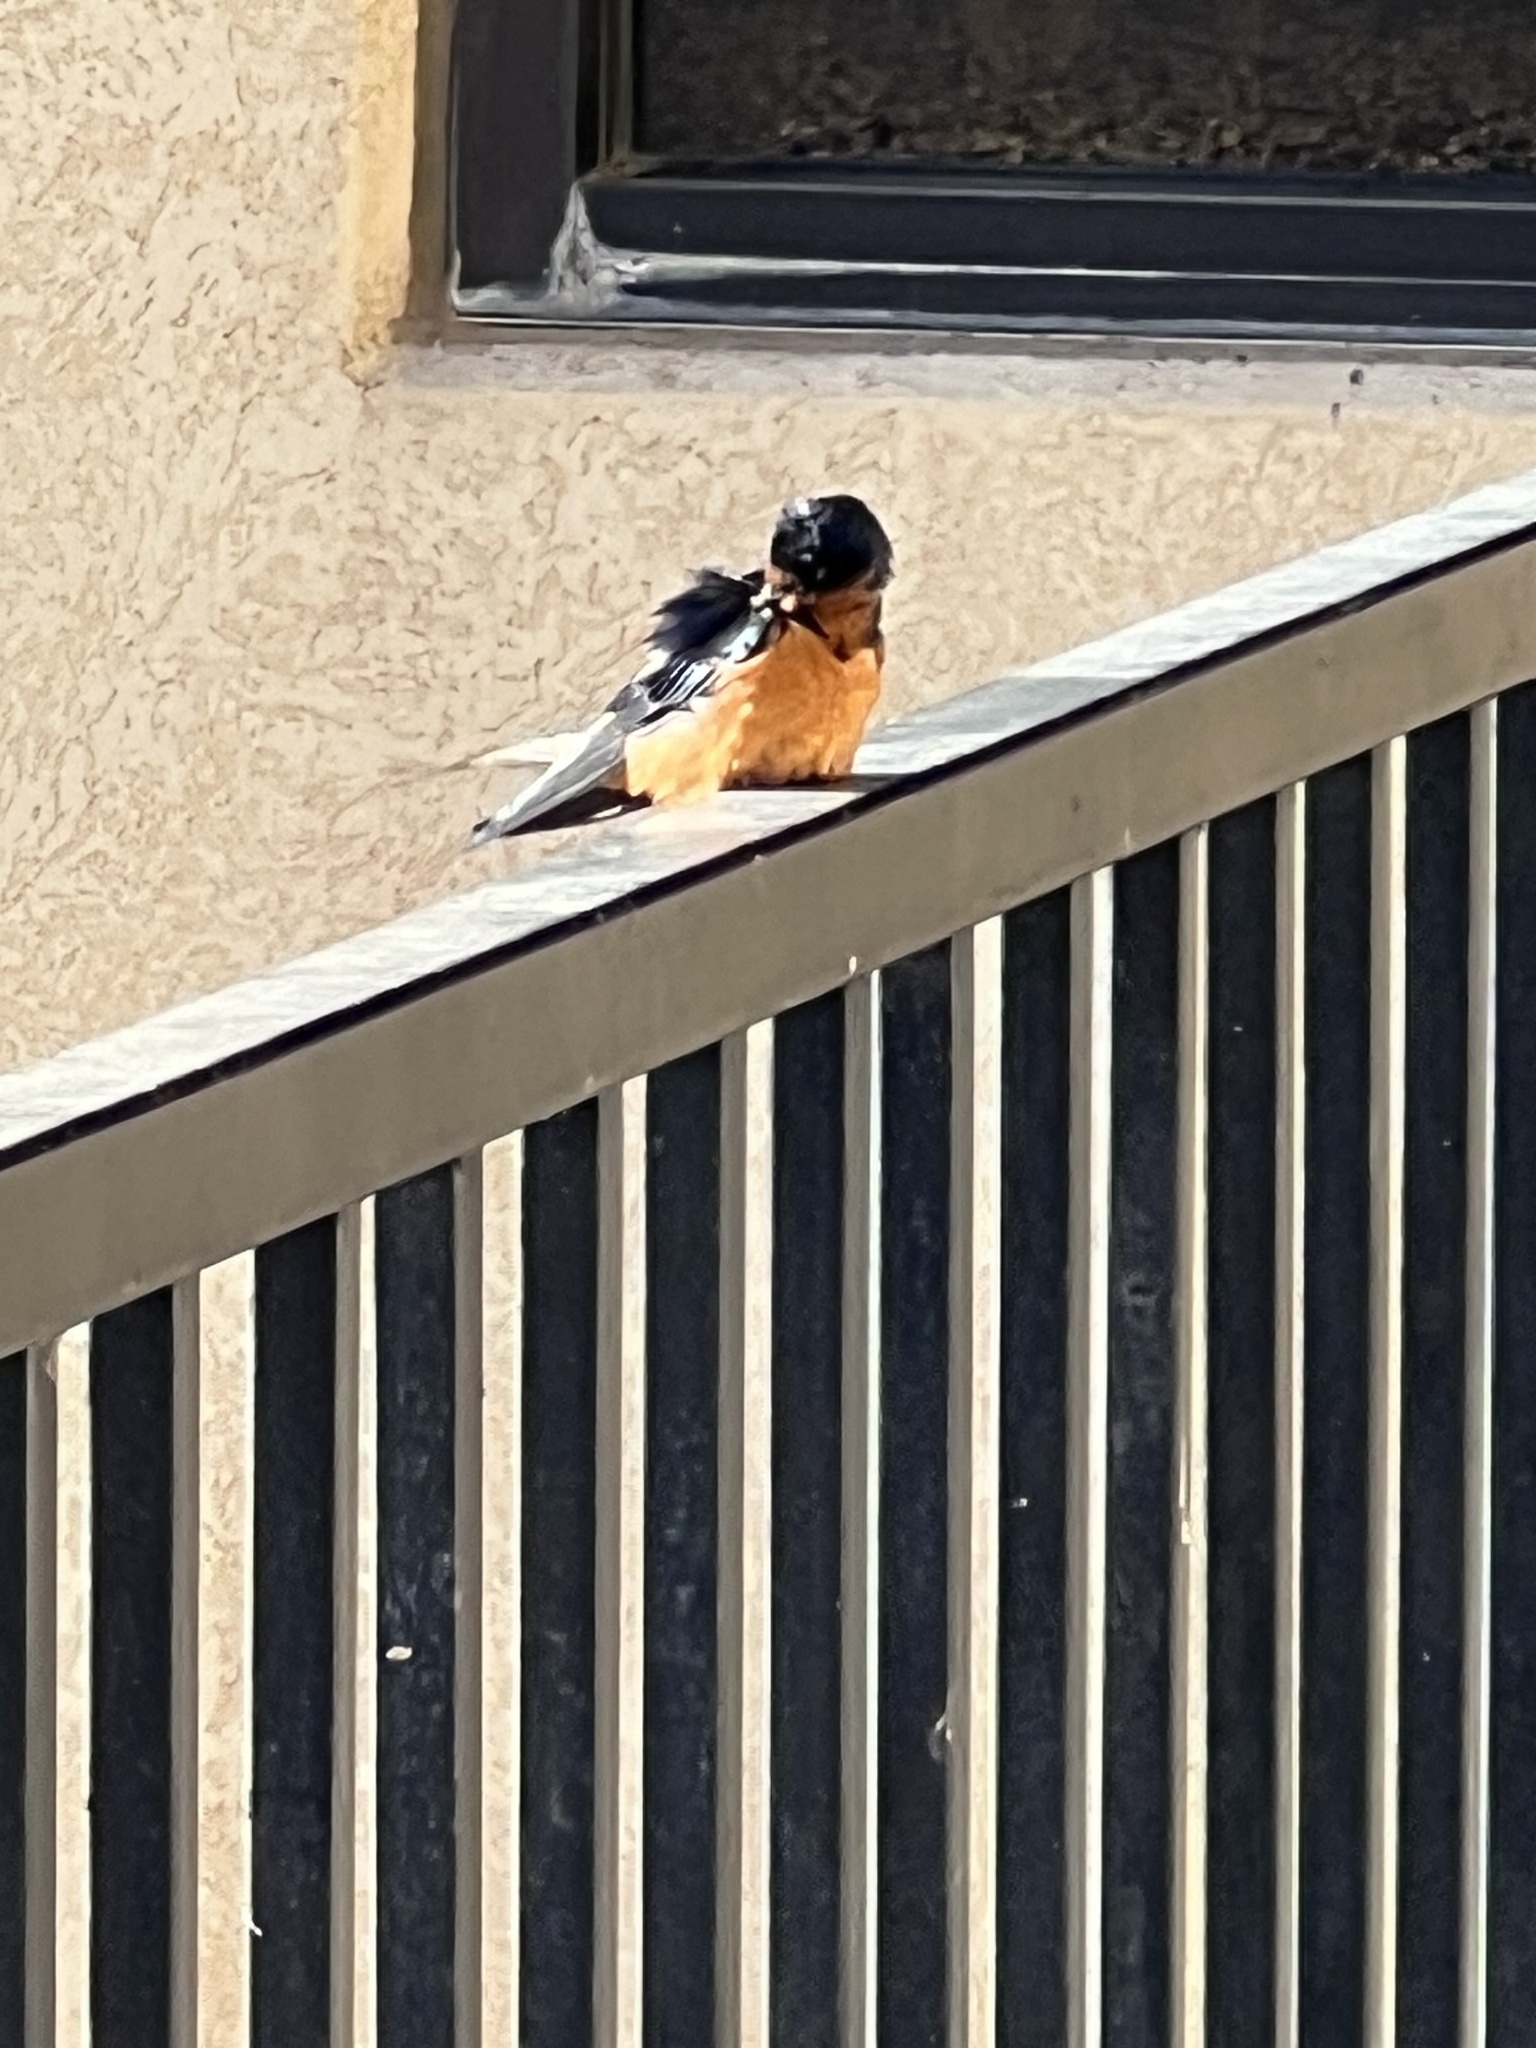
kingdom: Animalia
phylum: Chordata
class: Aves
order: Passeriformes
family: Hirundinidae
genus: Hirundo
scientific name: Hirundo rustica
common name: Barn swallow
